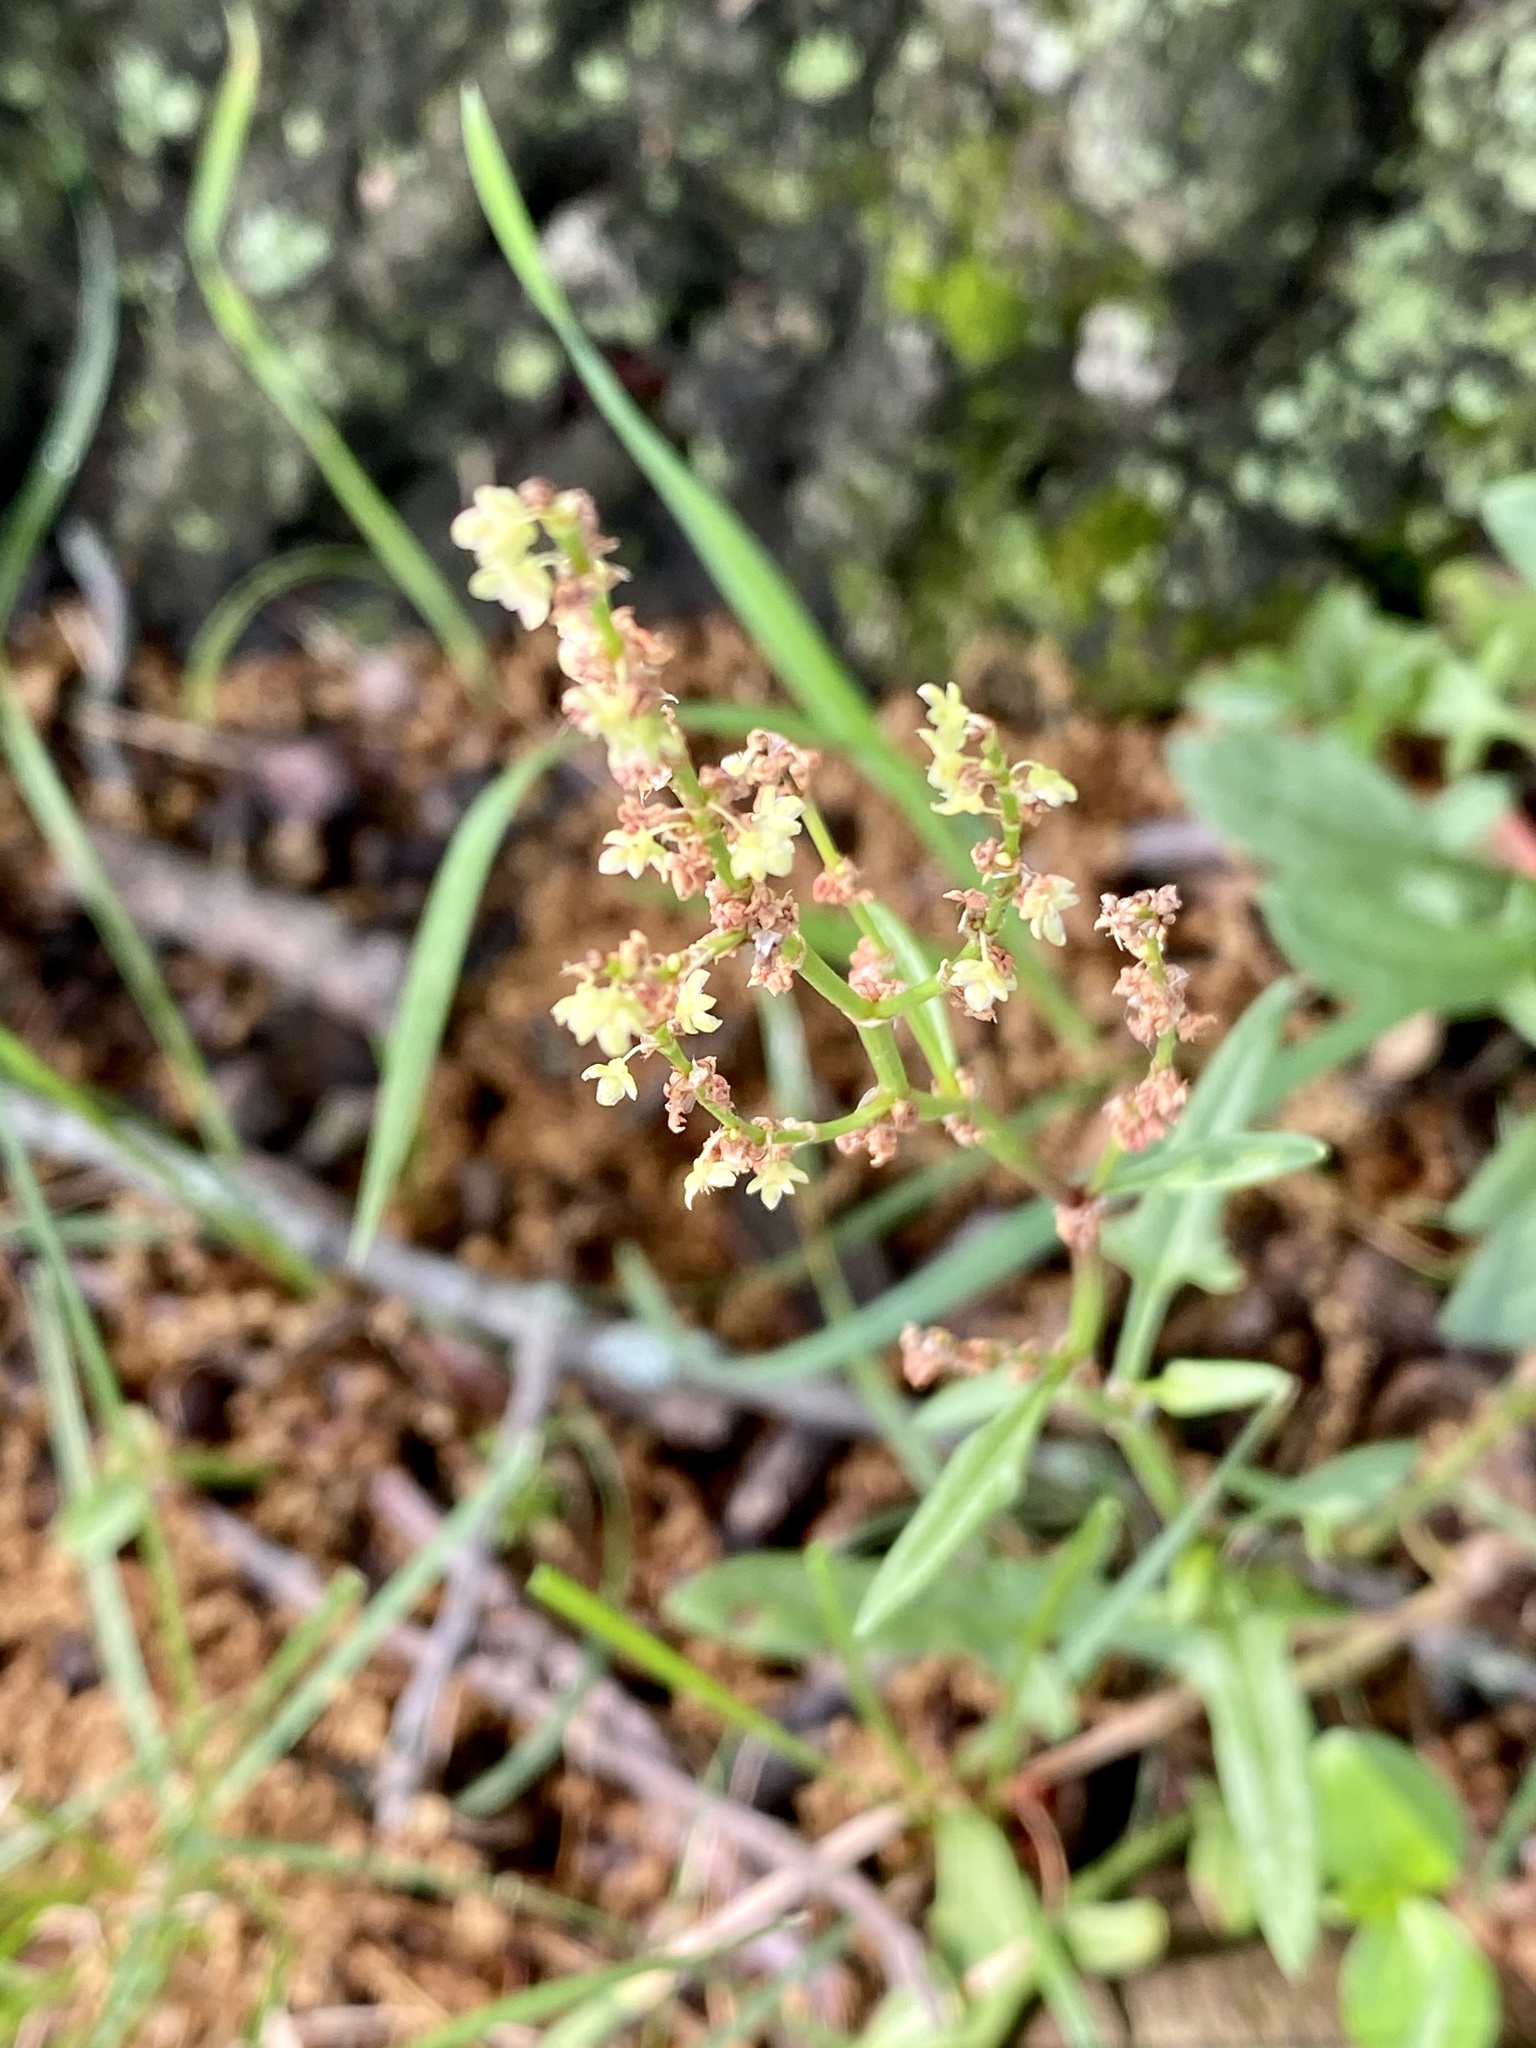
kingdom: Plantae
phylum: Tracheophyta
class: Magnoliopsida
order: Caryophyllales
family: Polygonaceae
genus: Rumex
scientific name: Rumex acetosella
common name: Common sheep sorrel
